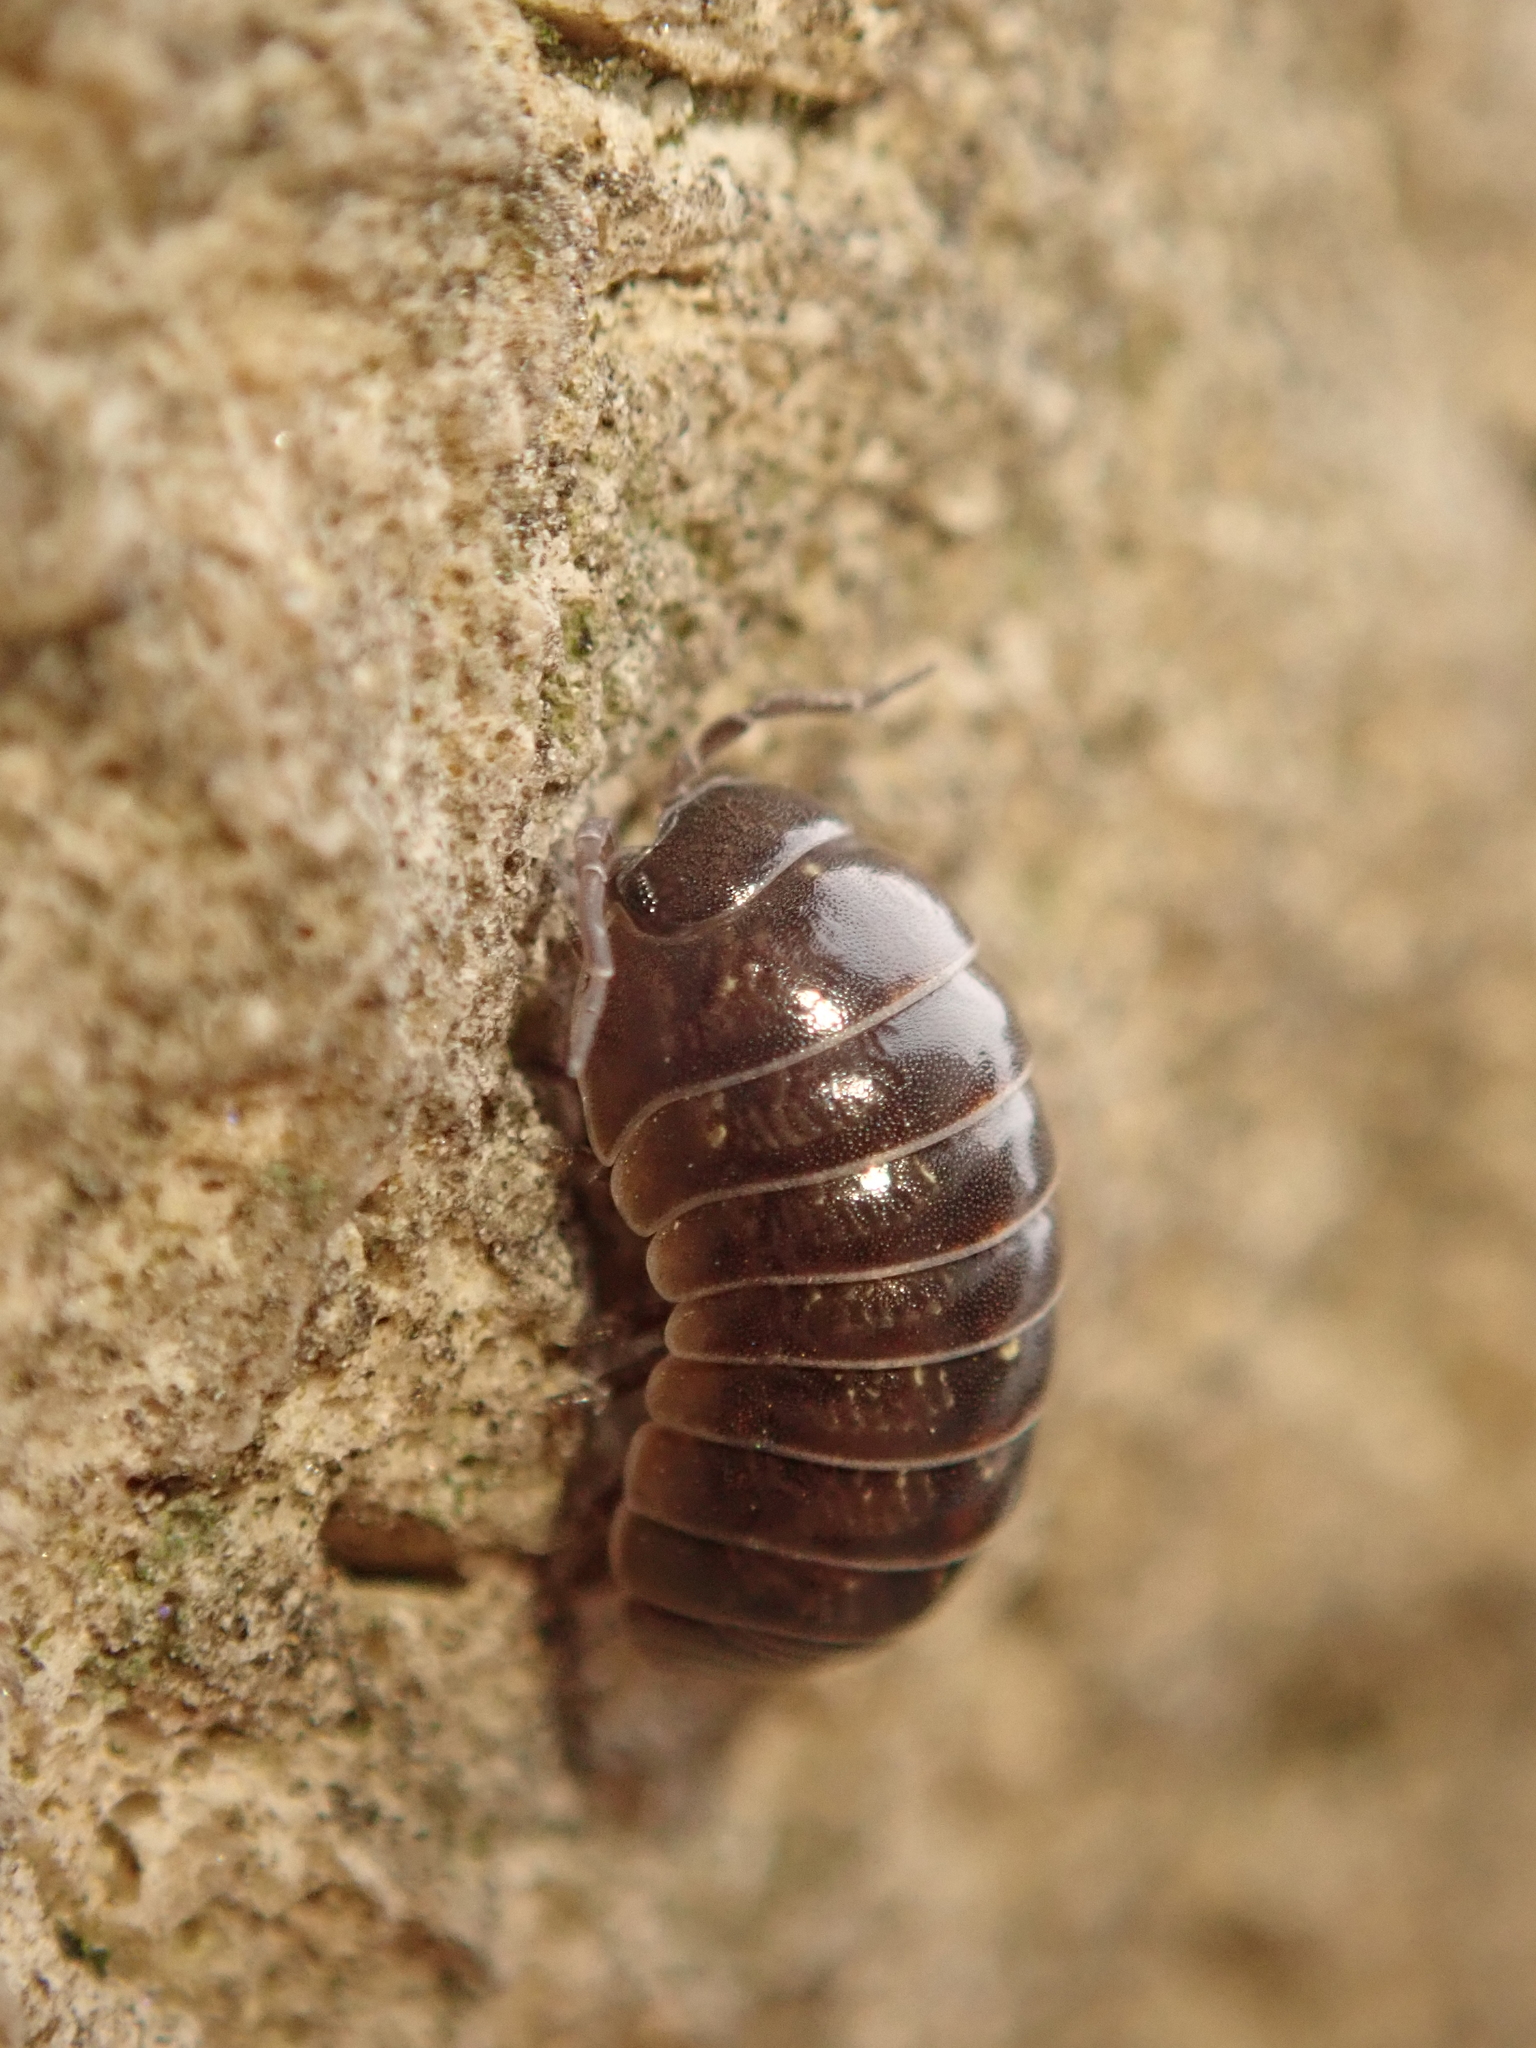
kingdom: Animalia
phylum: Arthropoda
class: Malacostraca
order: Isopoda
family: Armadillidiidae
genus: Armadillidium
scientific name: Armadillidium vulgare
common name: Common pill woodlouse
